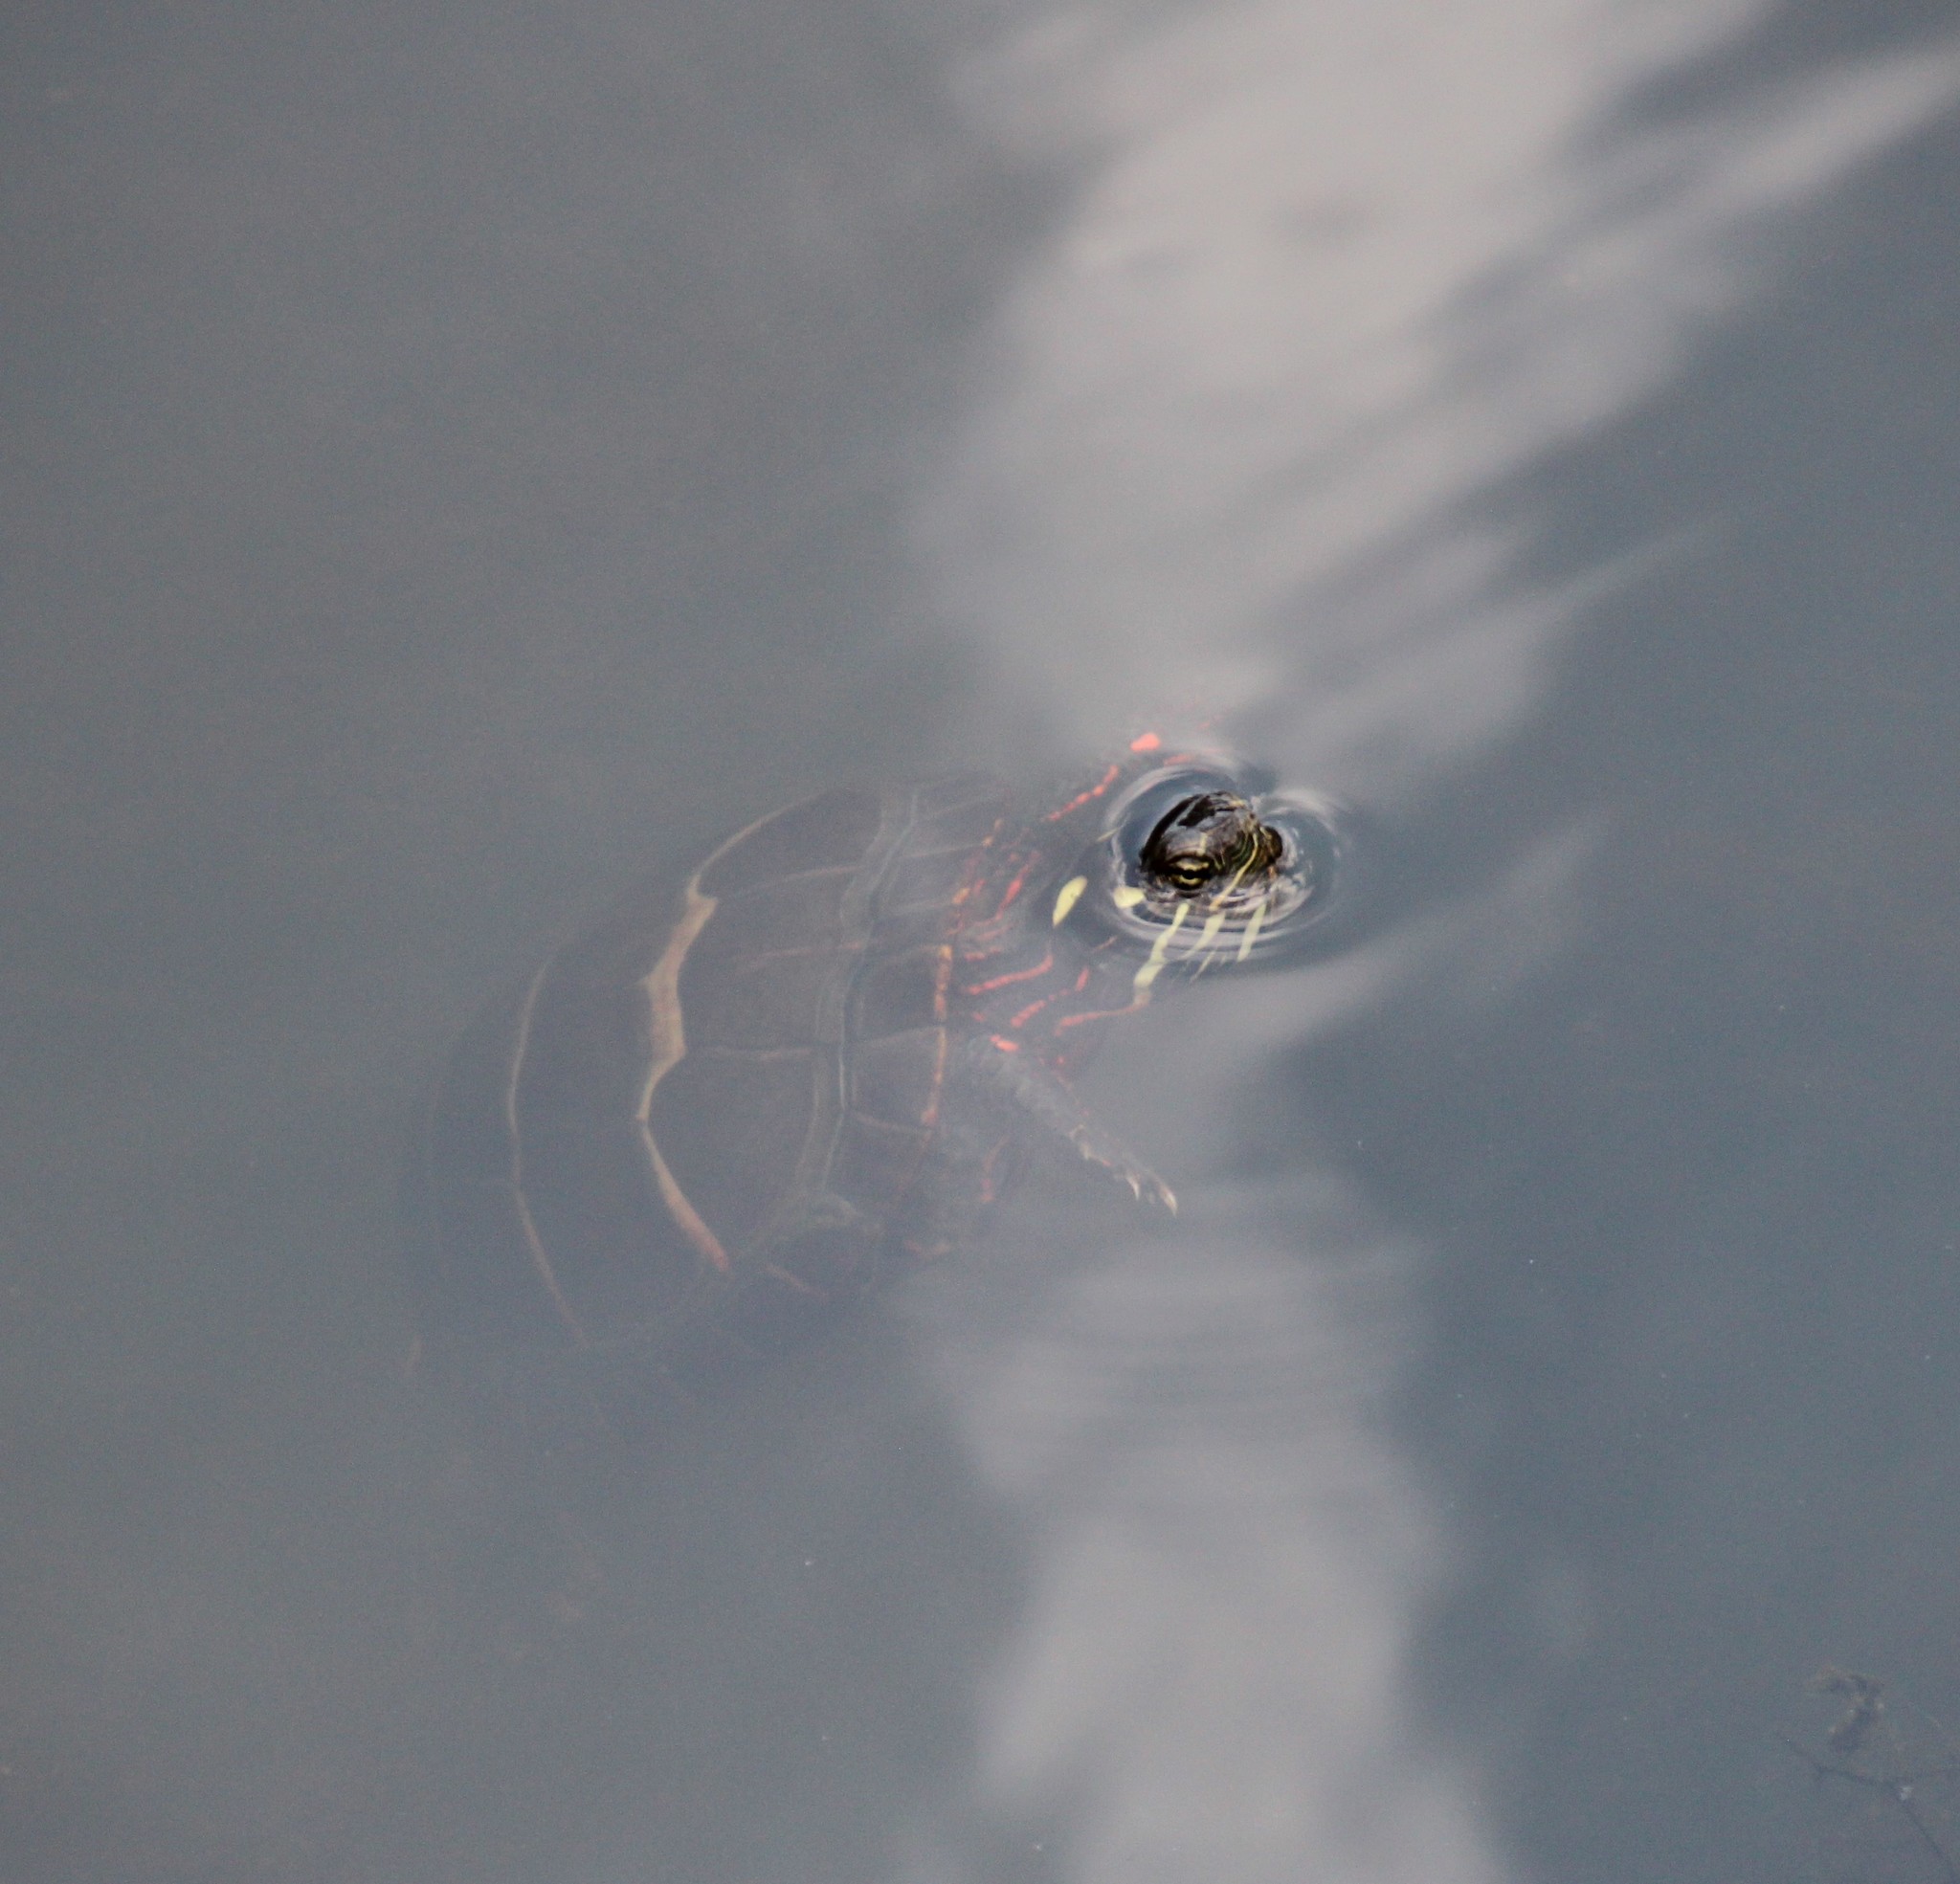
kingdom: Animalia
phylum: Chordata
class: Testudines
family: Emydidae
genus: Chrysemys
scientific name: Chrysemys picta
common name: Painted turtle
